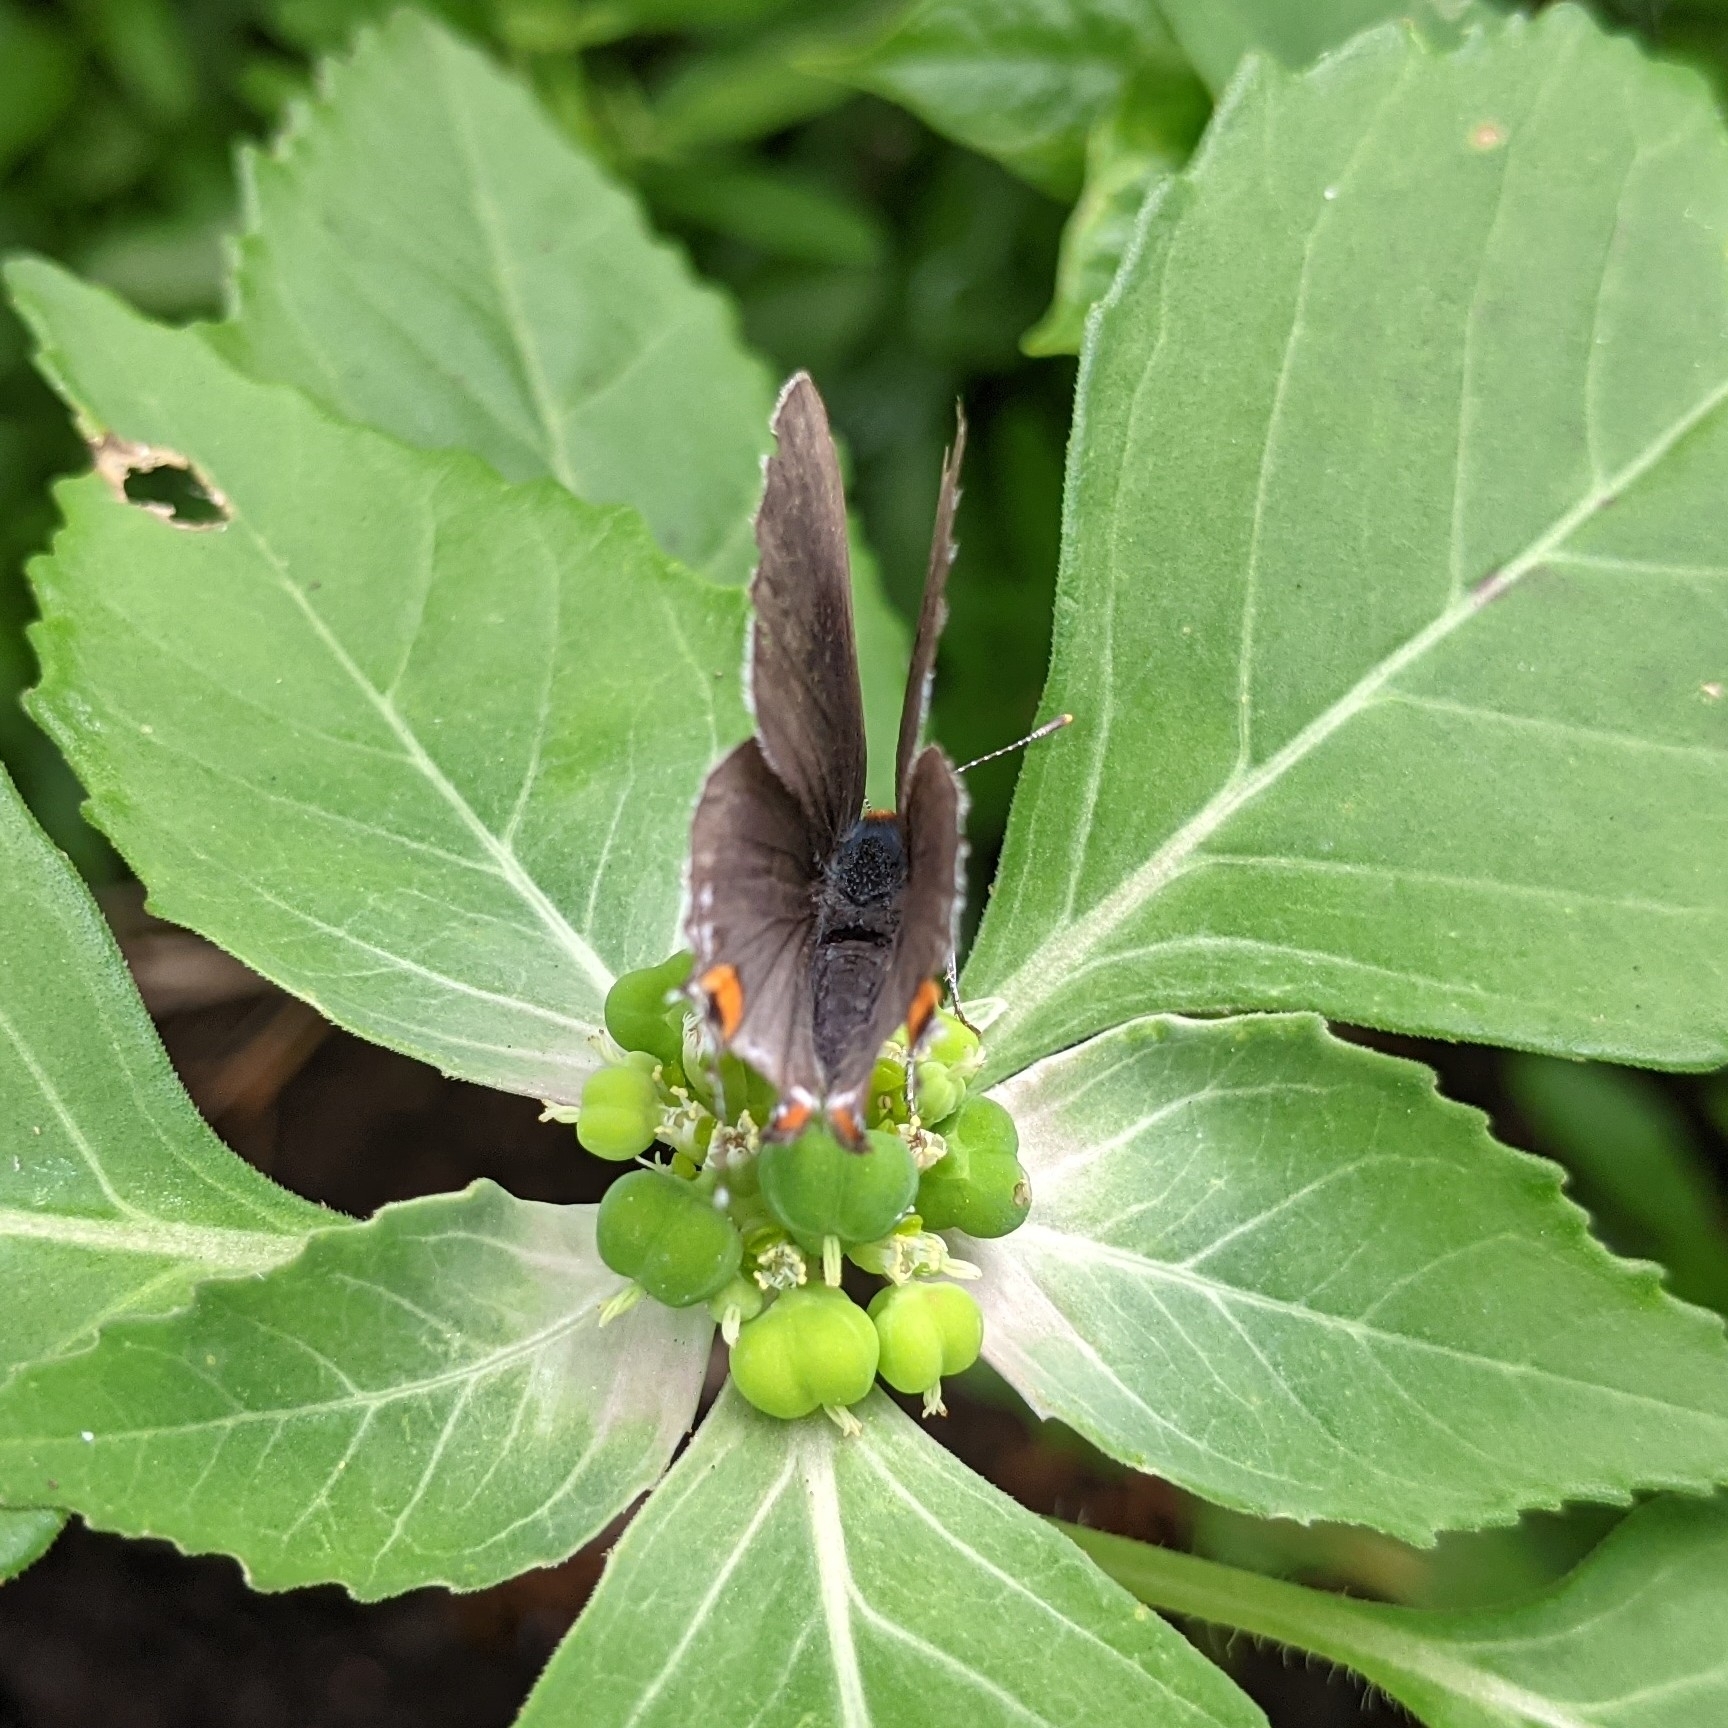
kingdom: Animalia
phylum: Arthropoda
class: Insecta
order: Lepidoptera
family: Lycaenidae
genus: Strymon
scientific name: Strymon melinus
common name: Gray hairstreak
